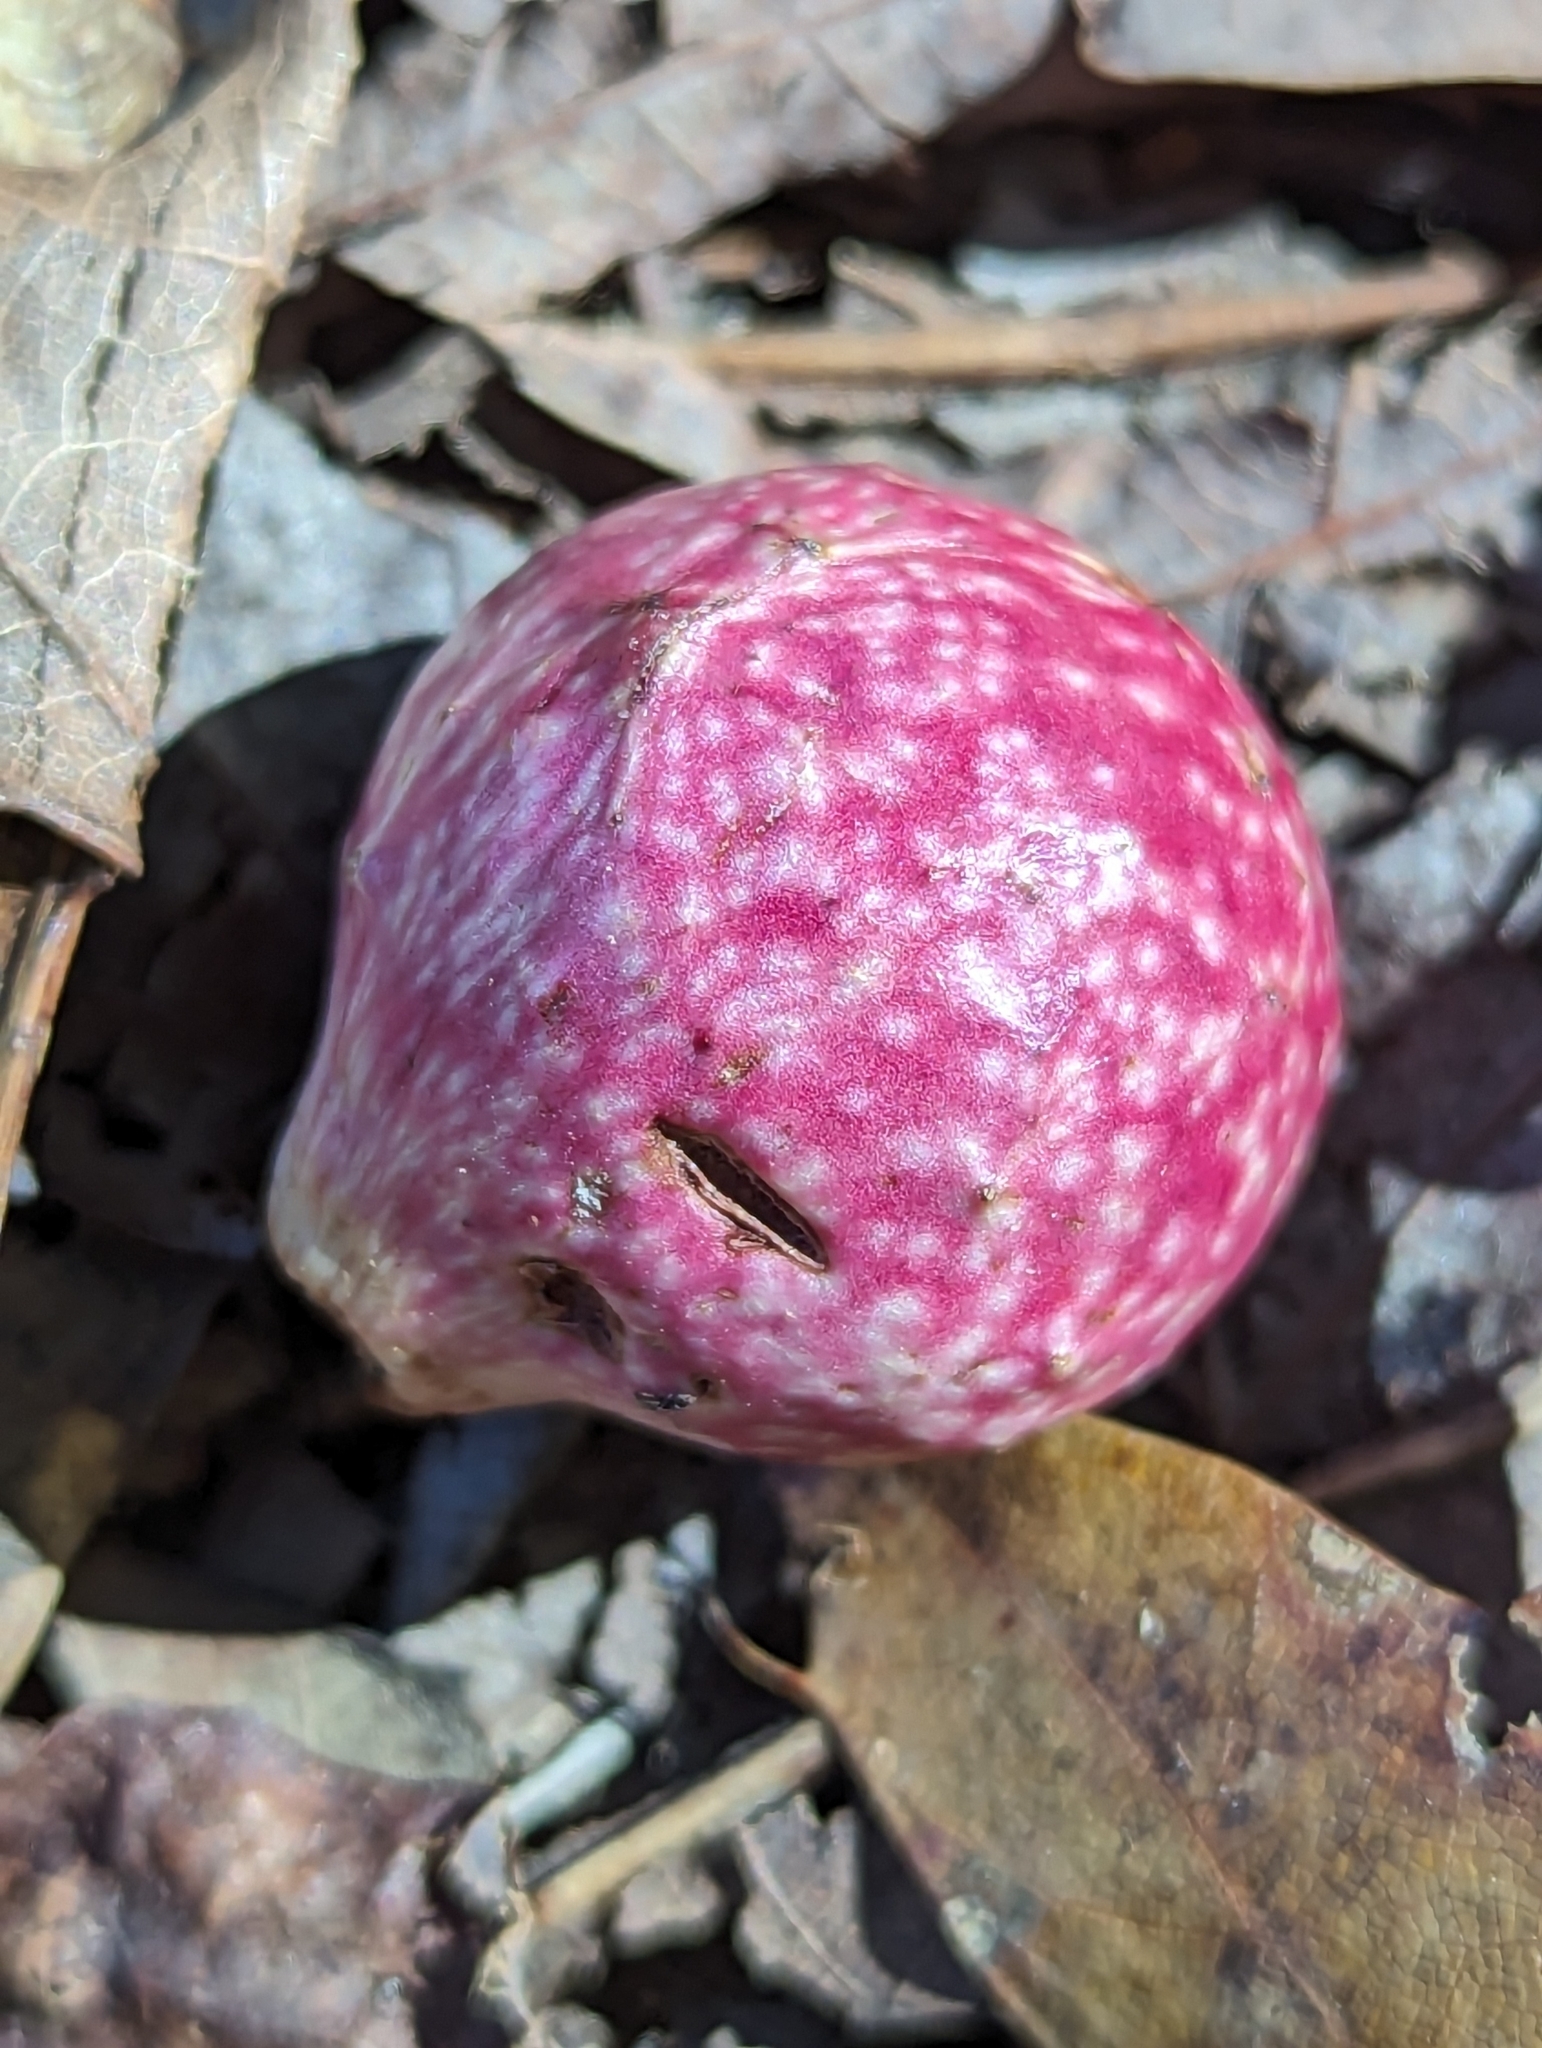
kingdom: Animalia
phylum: Arthropoda
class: Insecta
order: Hymenoptera
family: Cynipidae
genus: Amphibolips
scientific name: Amphibolips
